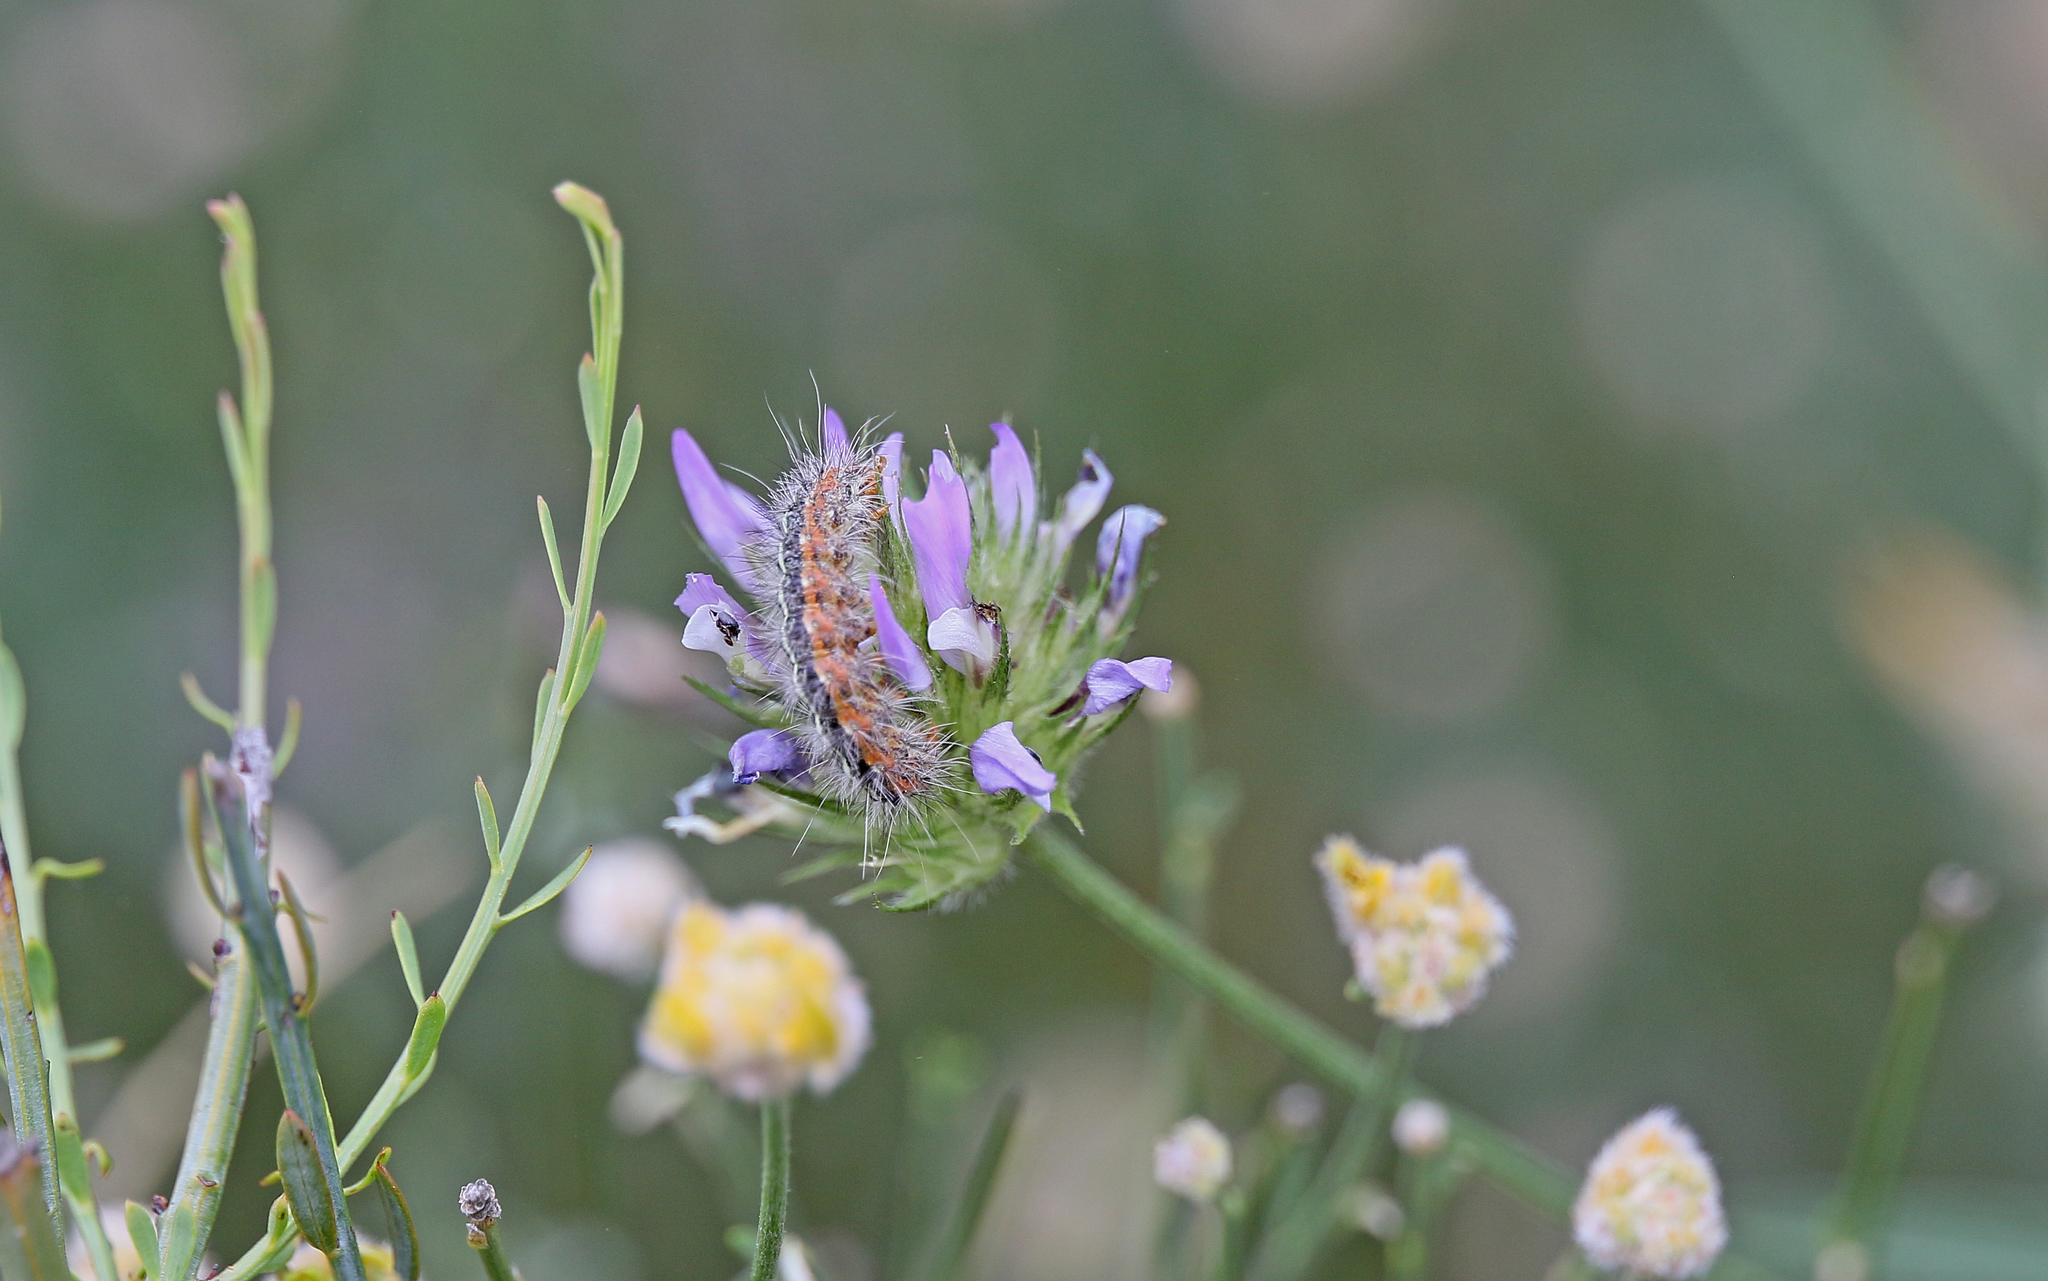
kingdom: Animalia
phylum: Arthropoda
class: Insecta
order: Lepidoptera
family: Erebidae
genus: Artimelia
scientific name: Artimelia latreillii
